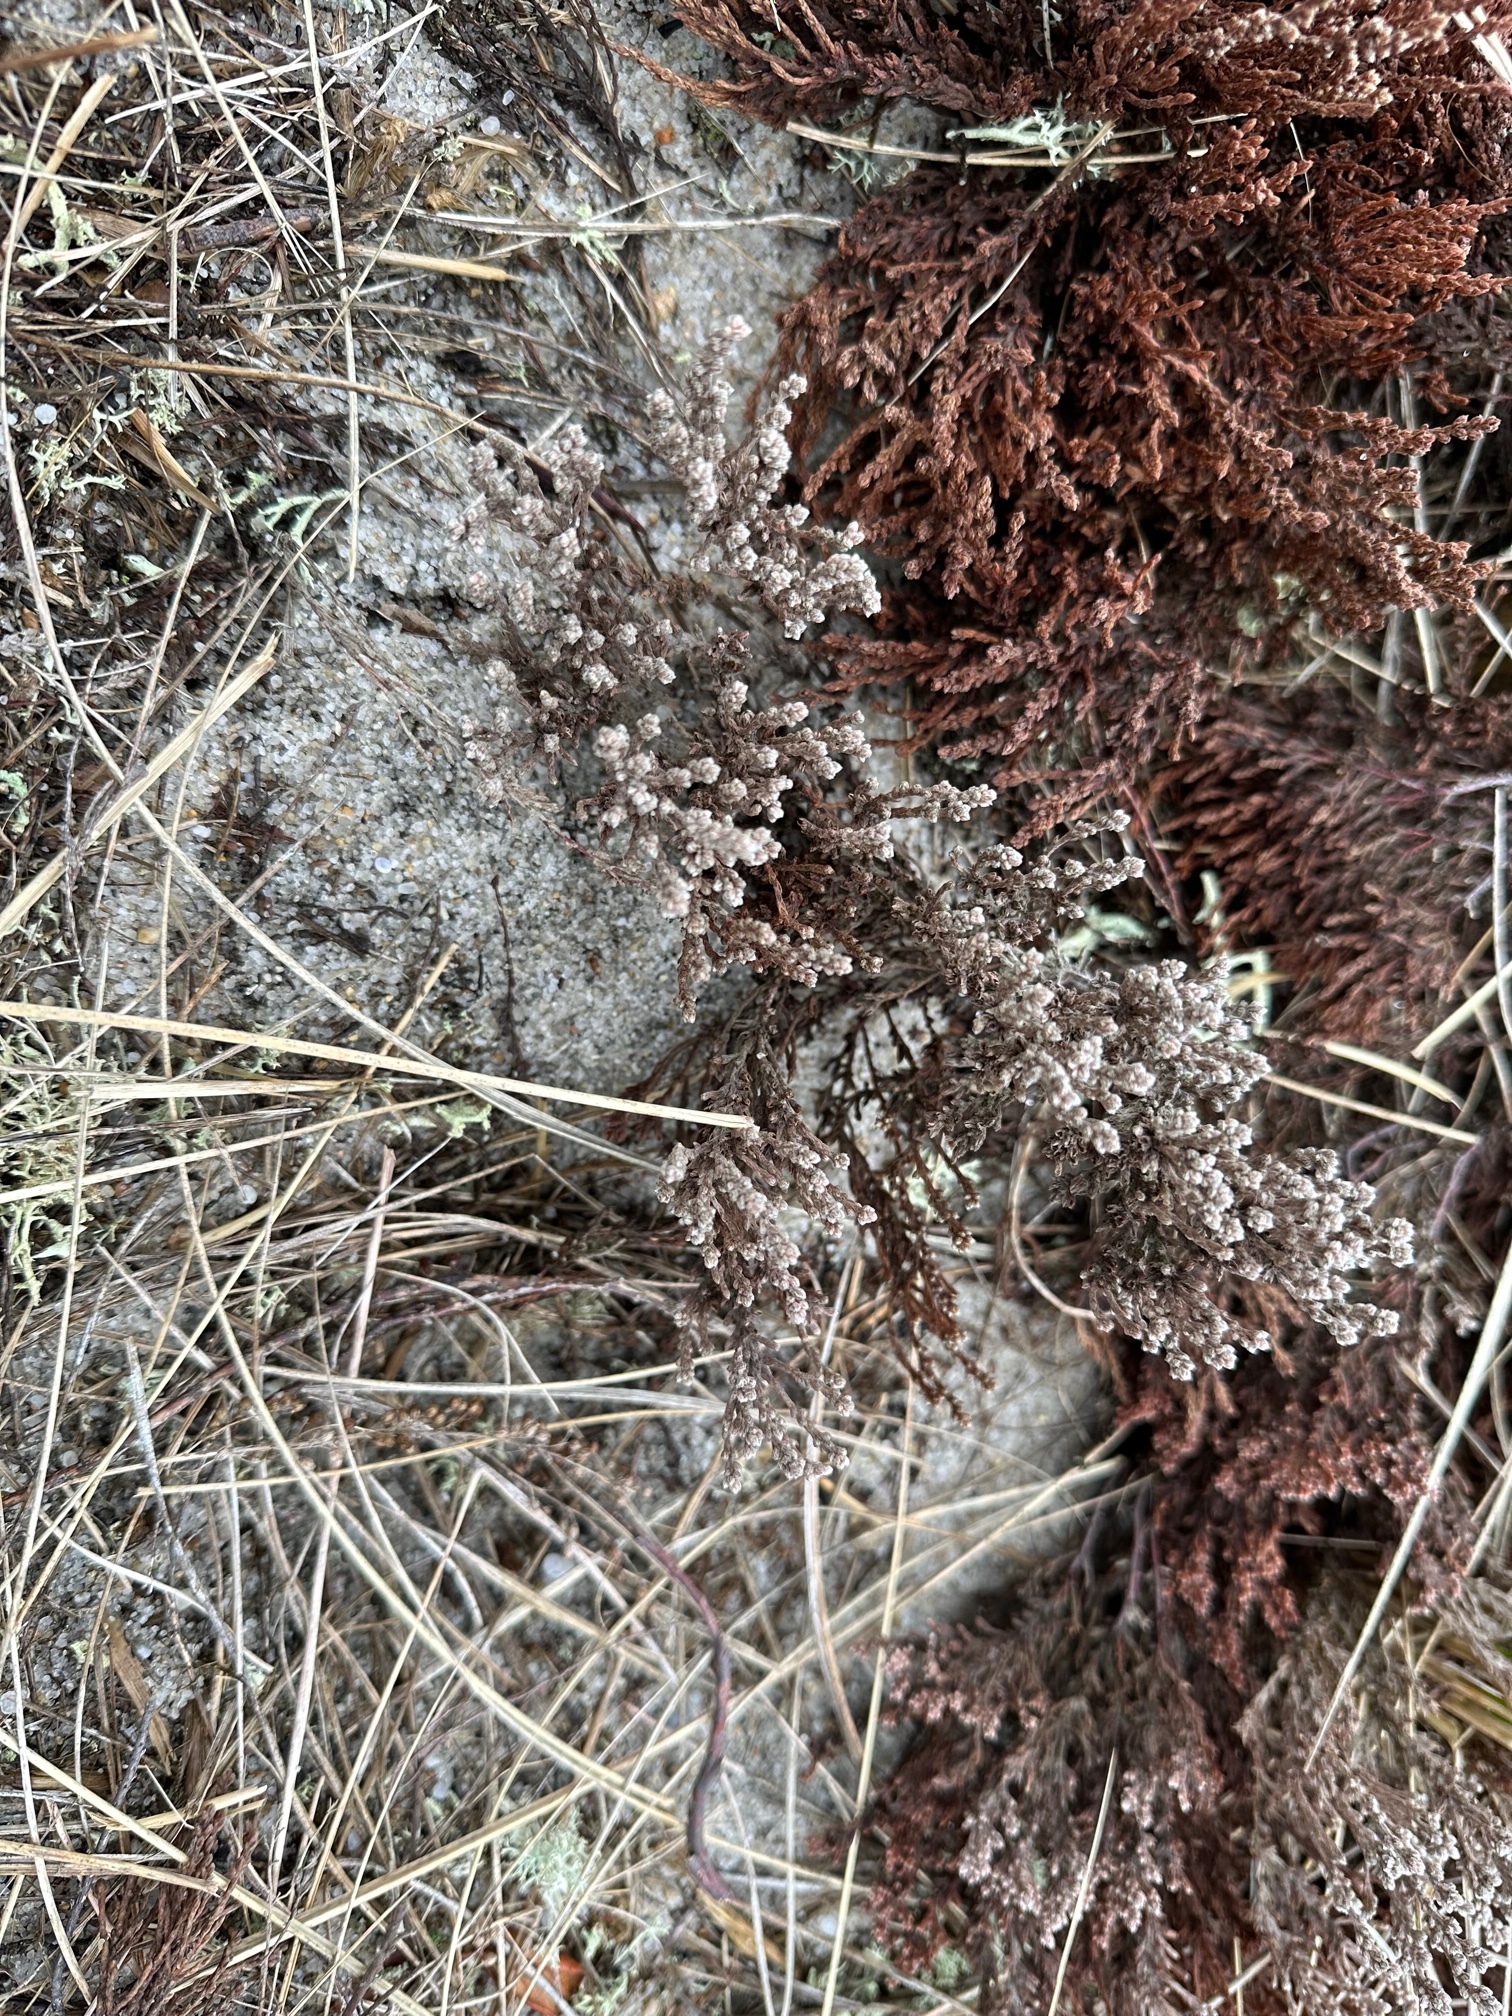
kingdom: Plantae
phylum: Tracheophyta
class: Magnoliopsida
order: Malvales
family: Cistaceae
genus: Hudsonia
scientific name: Hudsonia tomentosa
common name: Beach-heath
